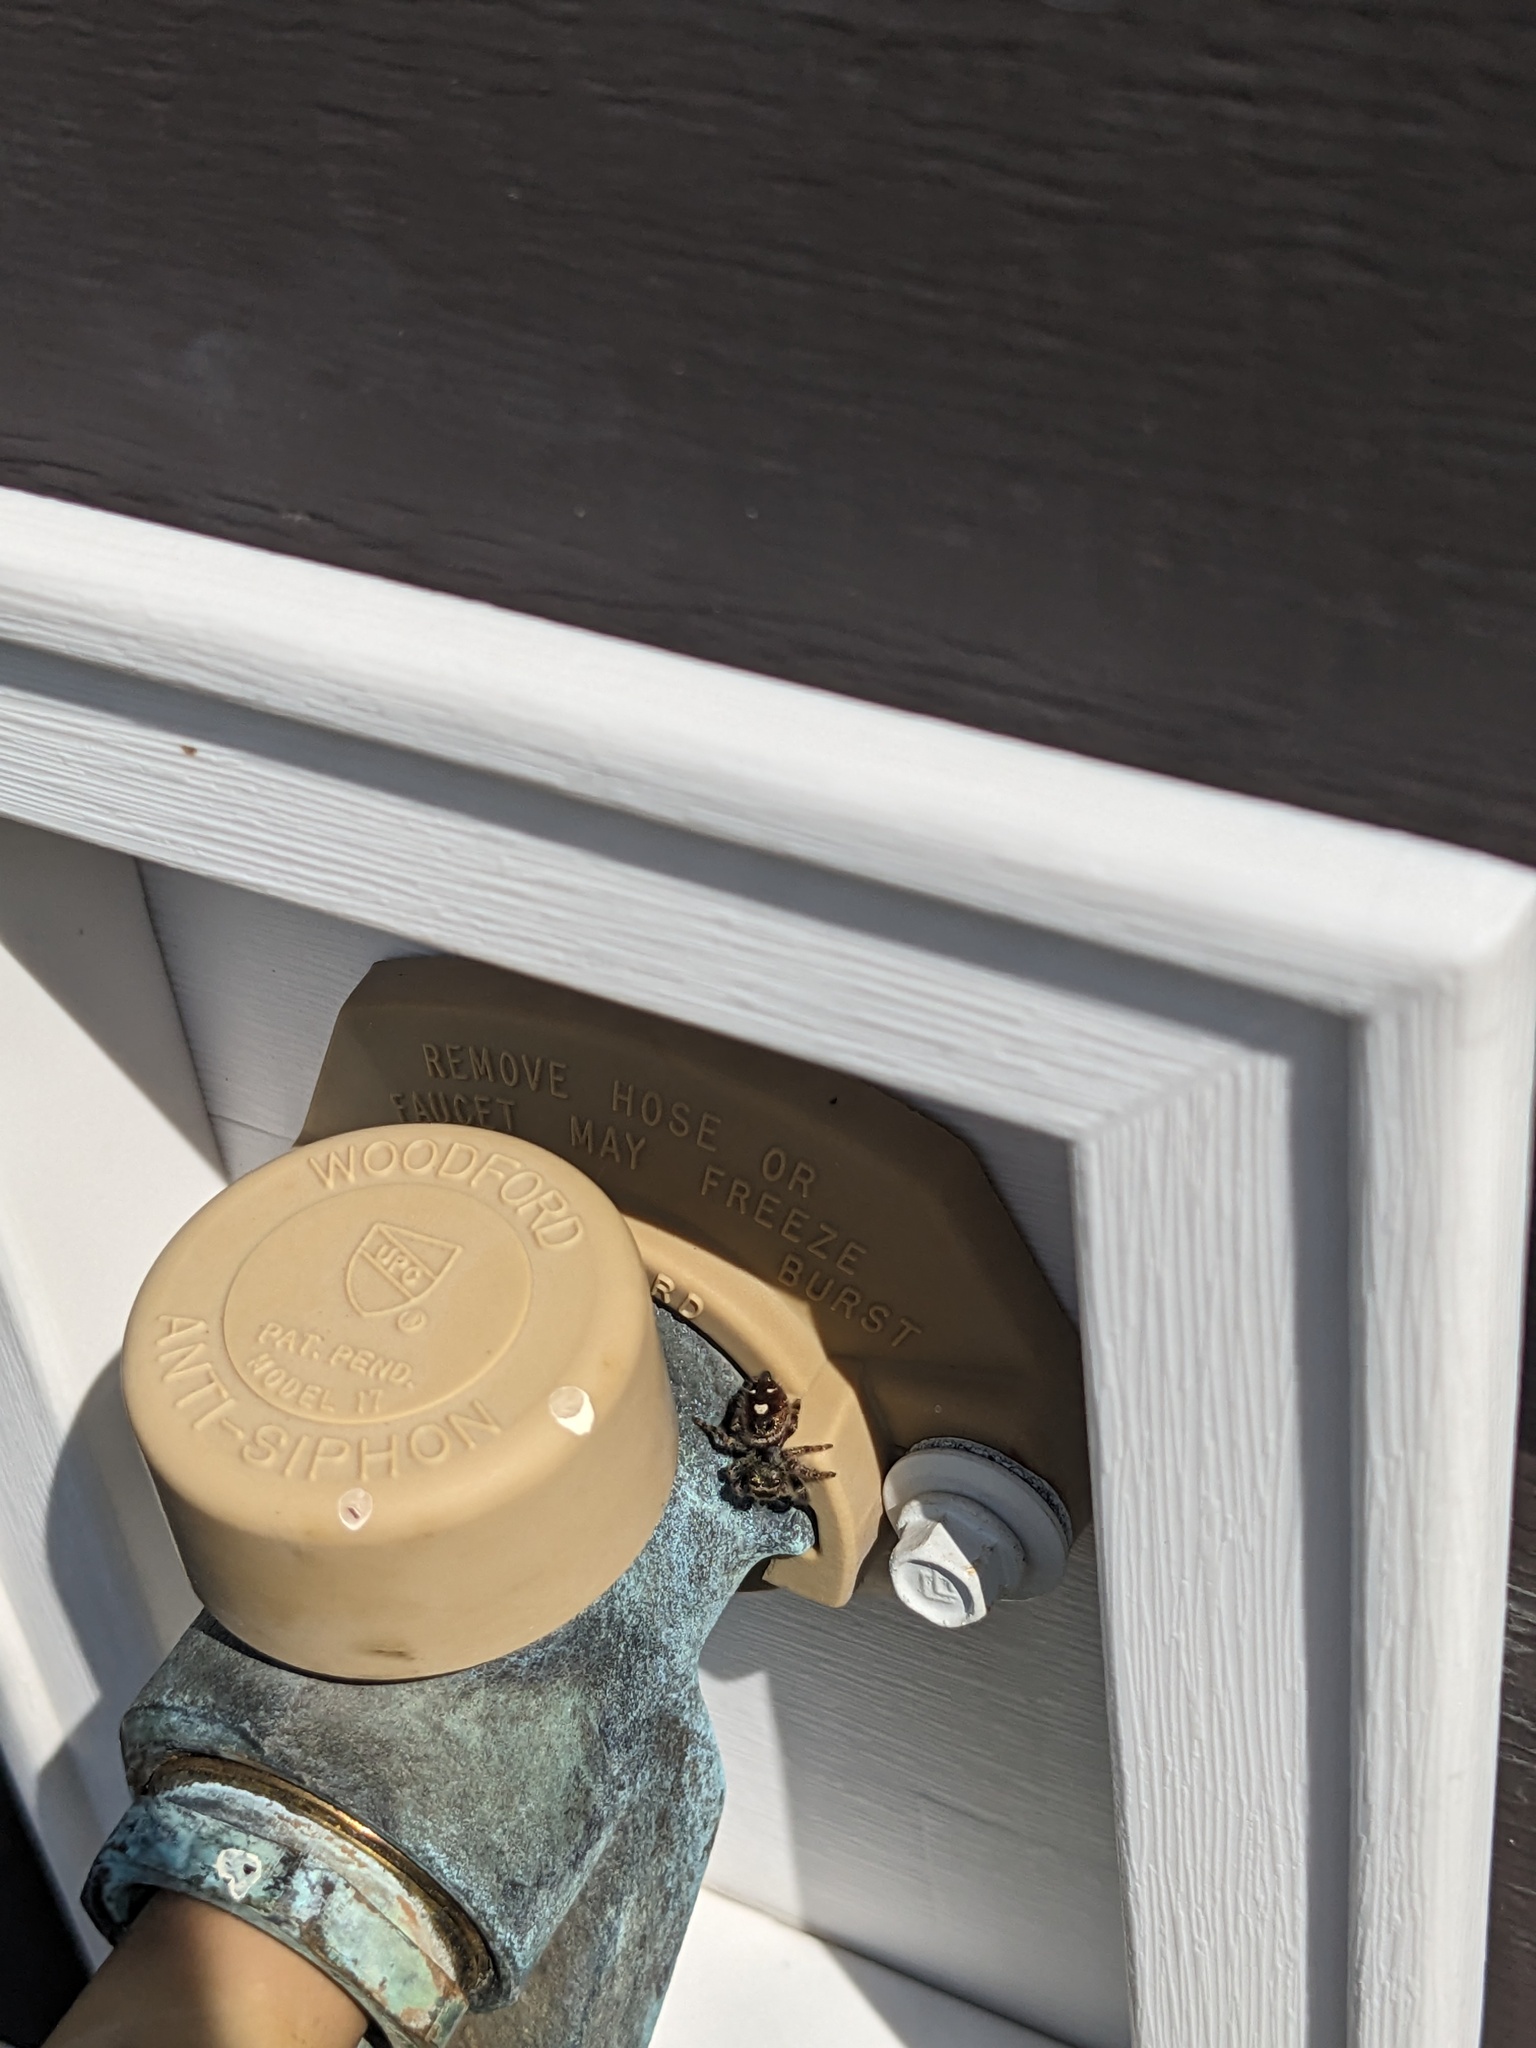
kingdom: Animalia
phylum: Arthropoda
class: Arachnida
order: Araneae
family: Salticidae
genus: Phidippus
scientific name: Phidippus audax
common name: Bold jumper
